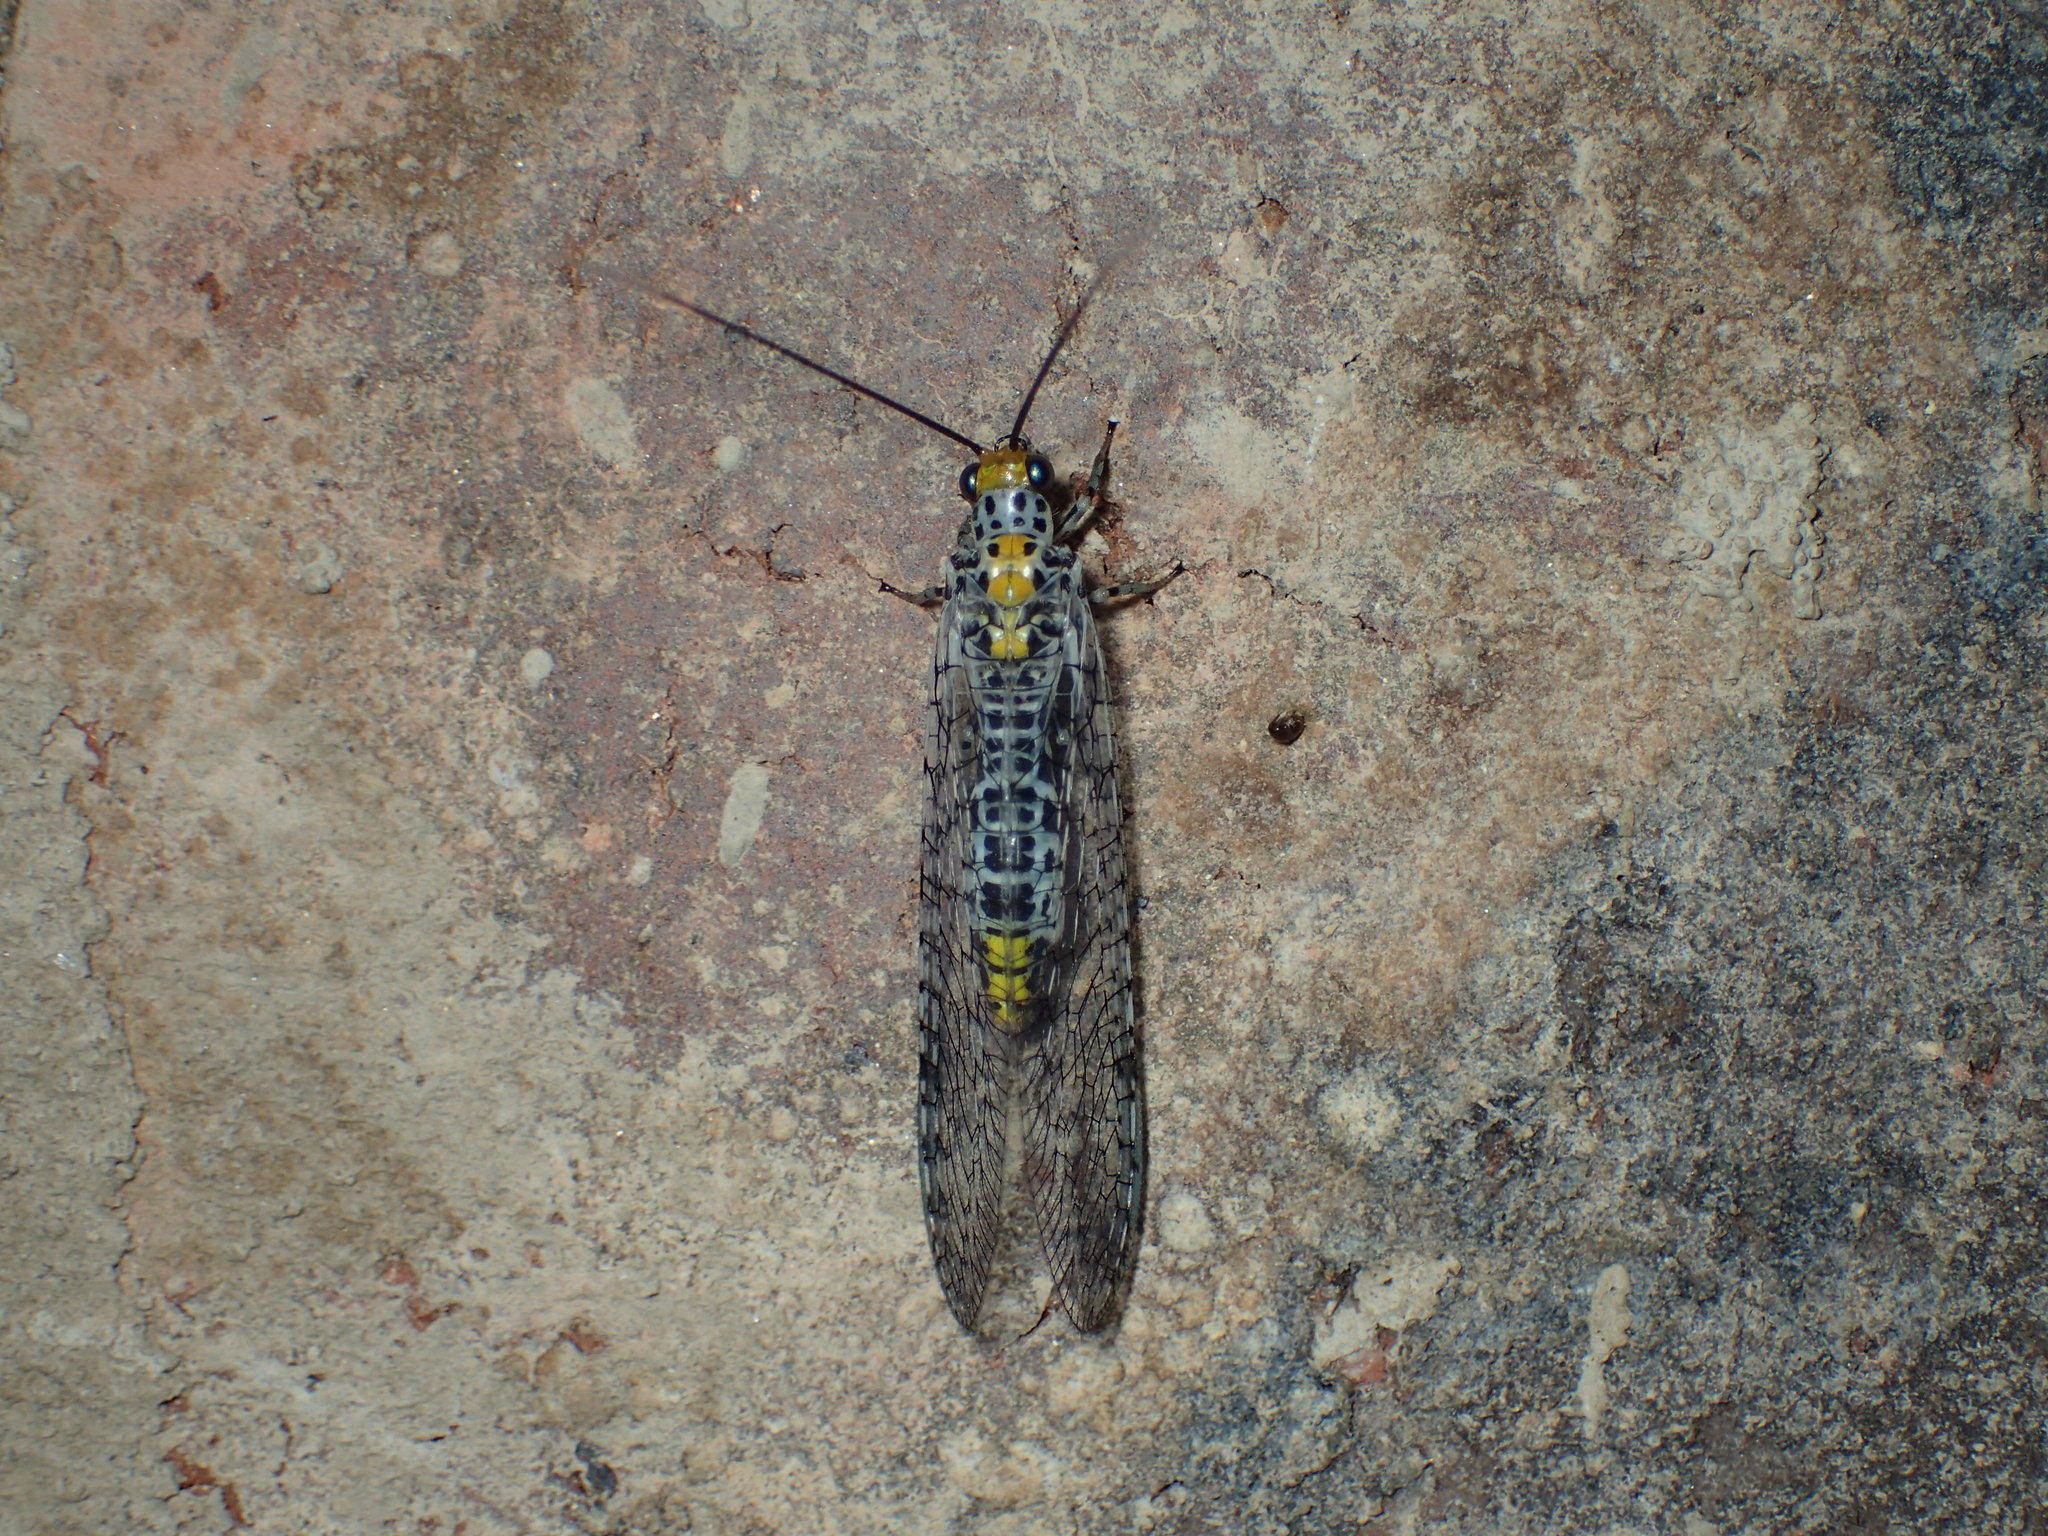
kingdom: Animalia
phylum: Arthropoda
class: Insecta
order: Neuroptera
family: Chrysopidae
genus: Abachrysa
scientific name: Abachrysa eureka
